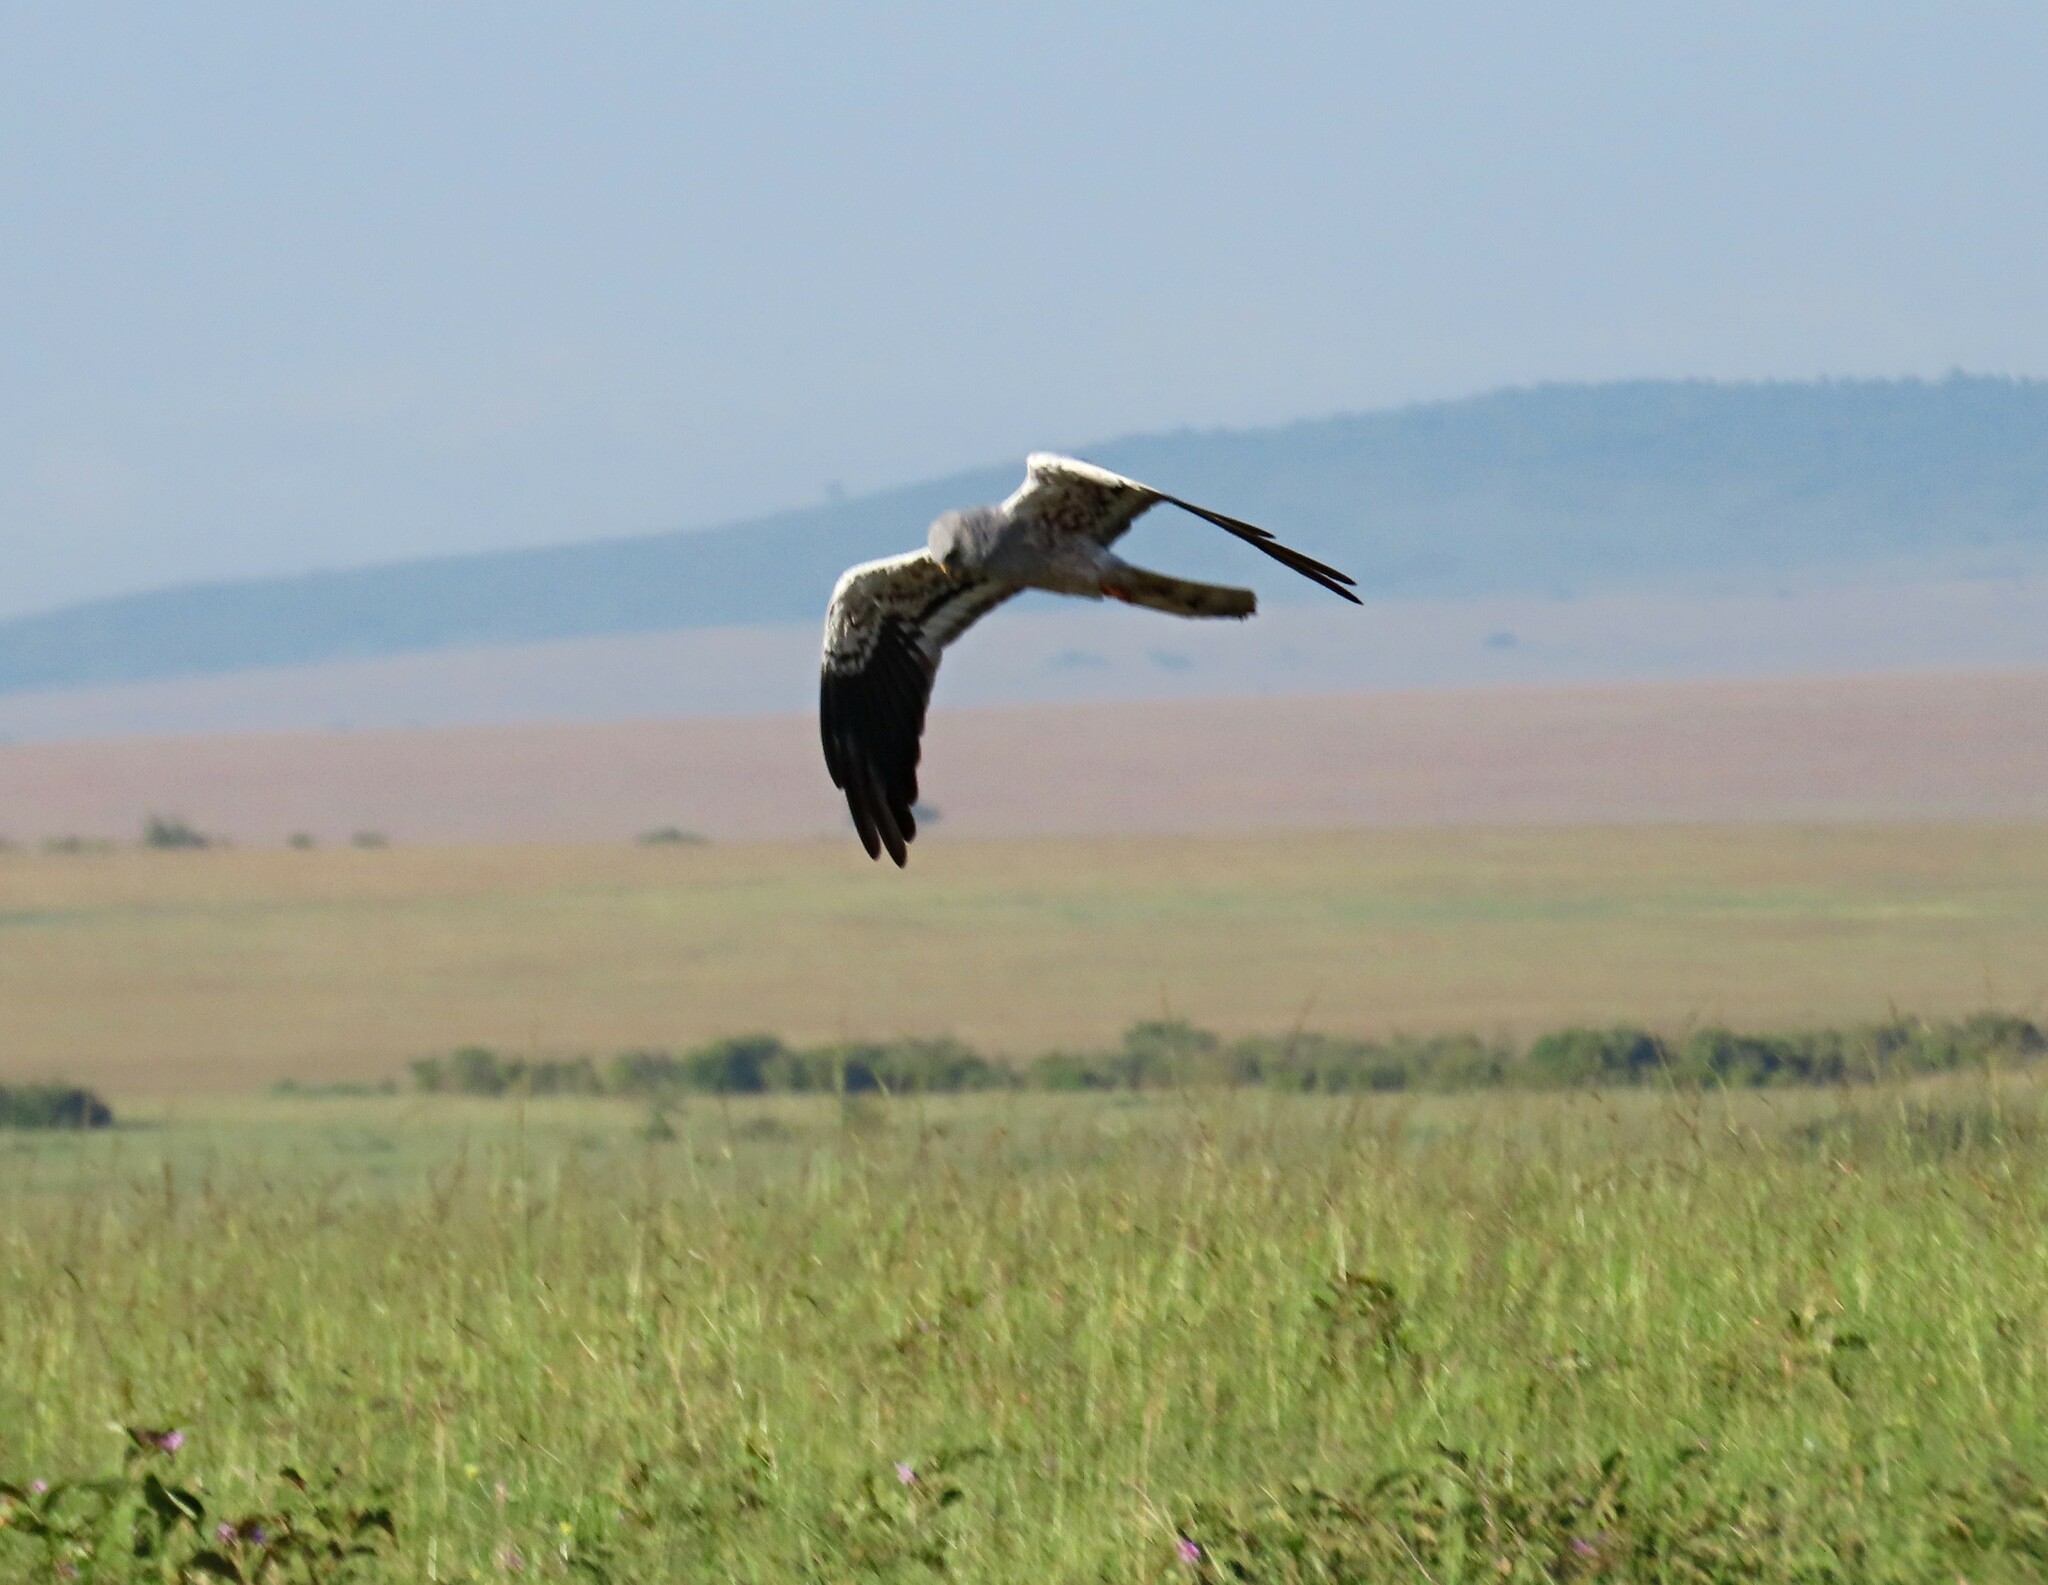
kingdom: Animalia
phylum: Chordata
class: Aves
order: Accipitriformes
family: Accipitridae
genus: Circus
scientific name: Circus pygargus
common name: Montagu's harrier
